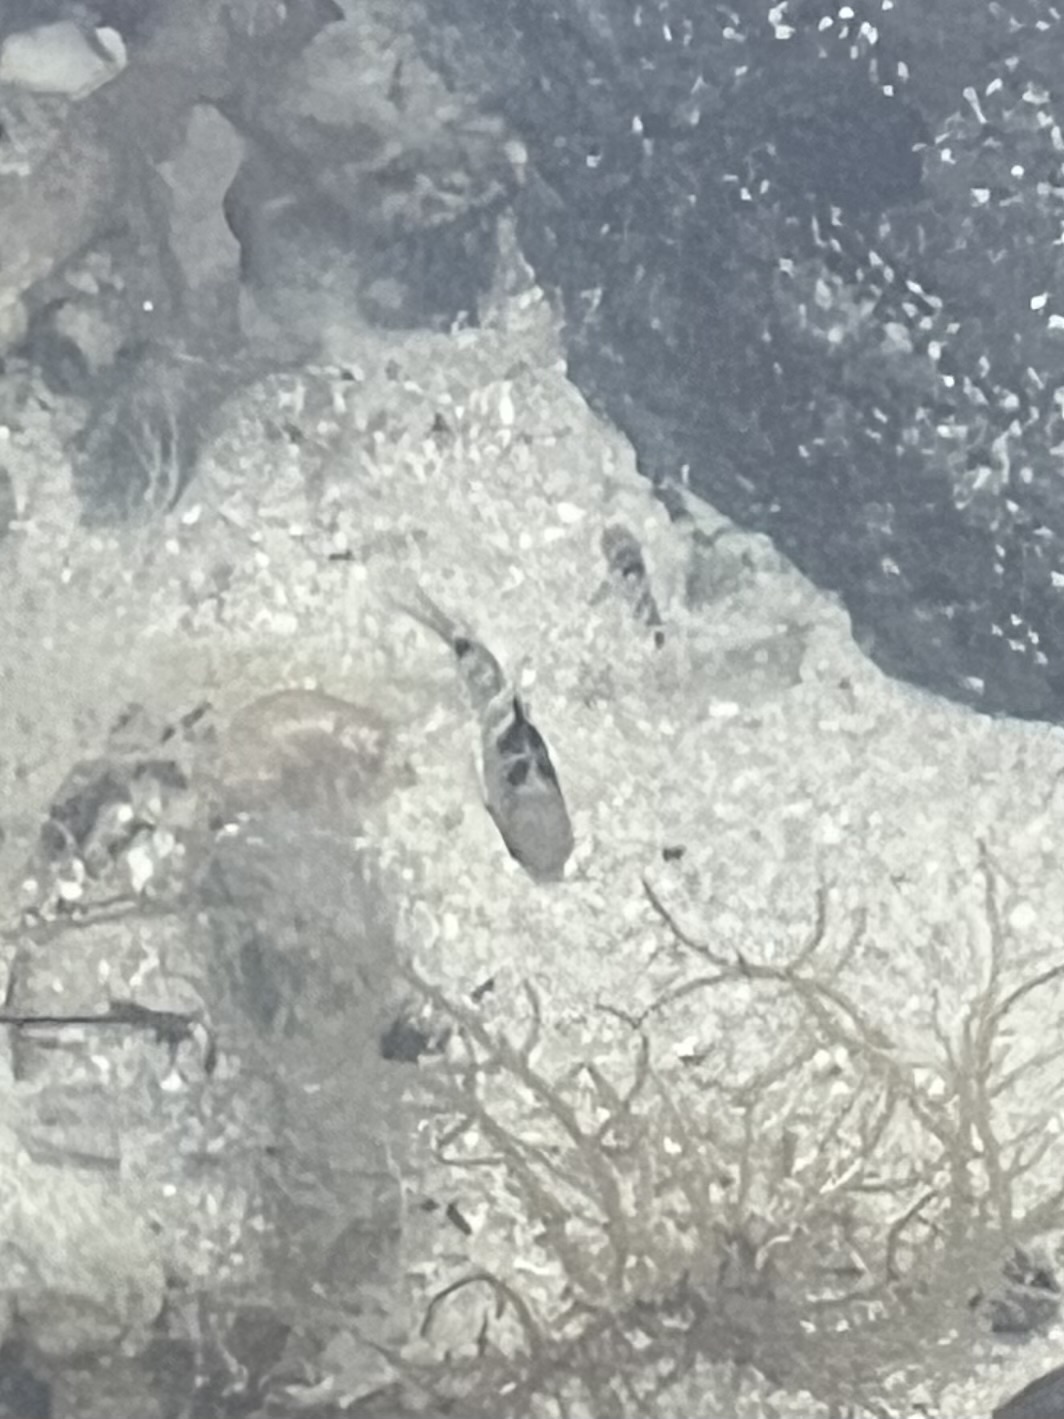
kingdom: Animalia
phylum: Chordata
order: Perciformes
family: Pomacentridae
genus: Abudefduf
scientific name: Abudefduf septemfasciatus
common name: Banded sergeant
